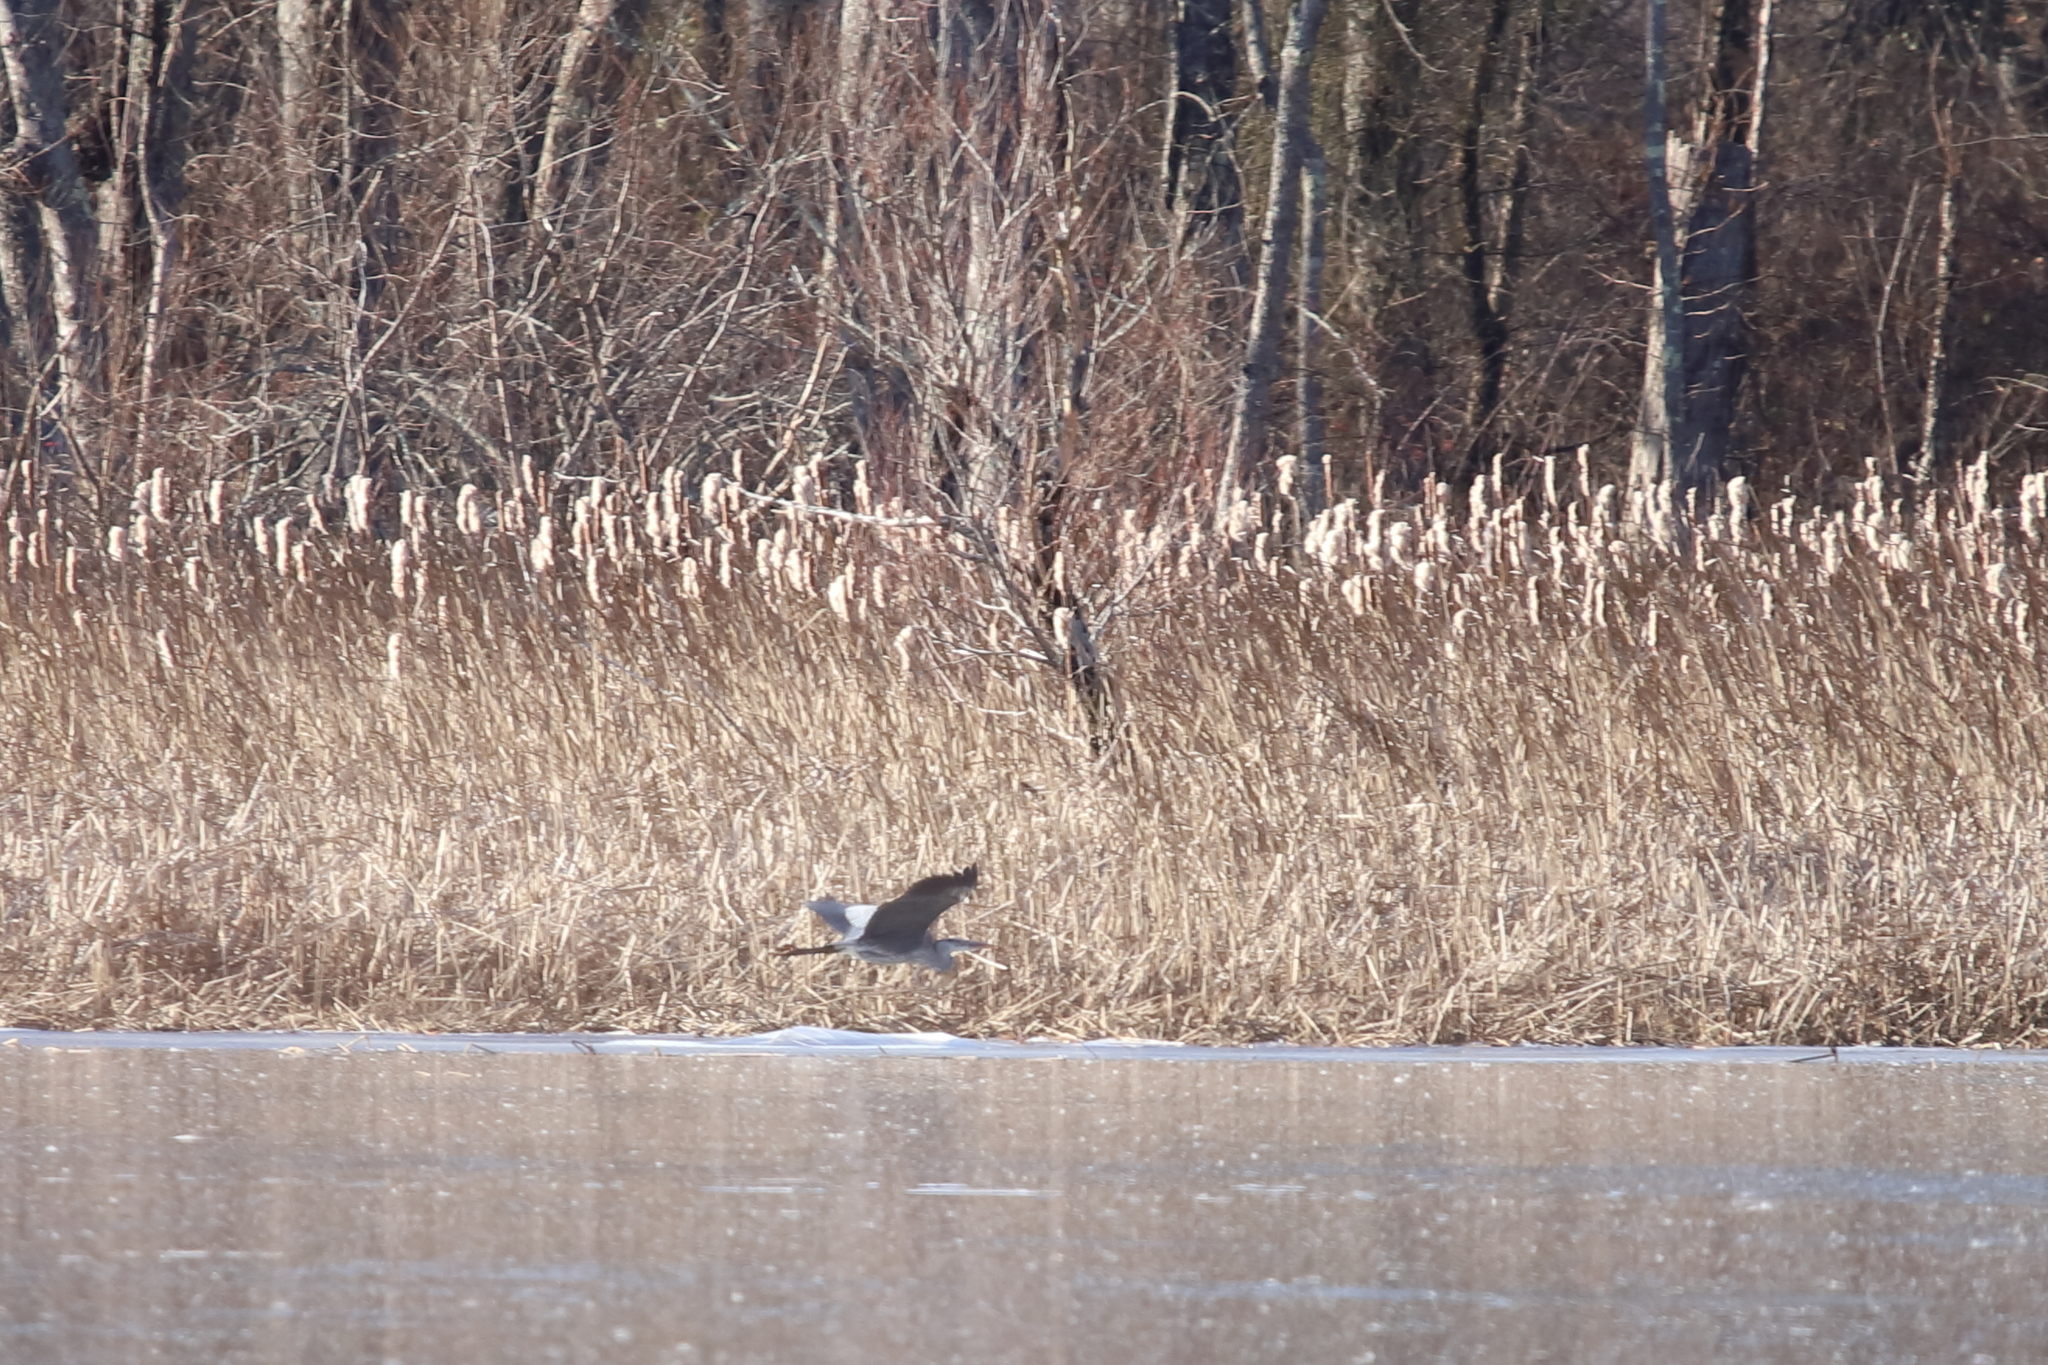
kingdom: Animalia
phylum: Chordata
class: Aves
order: Pelecaniformes
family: Ardeidae
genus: Ardea
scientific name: Ardea herodias
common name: Great blue heron
